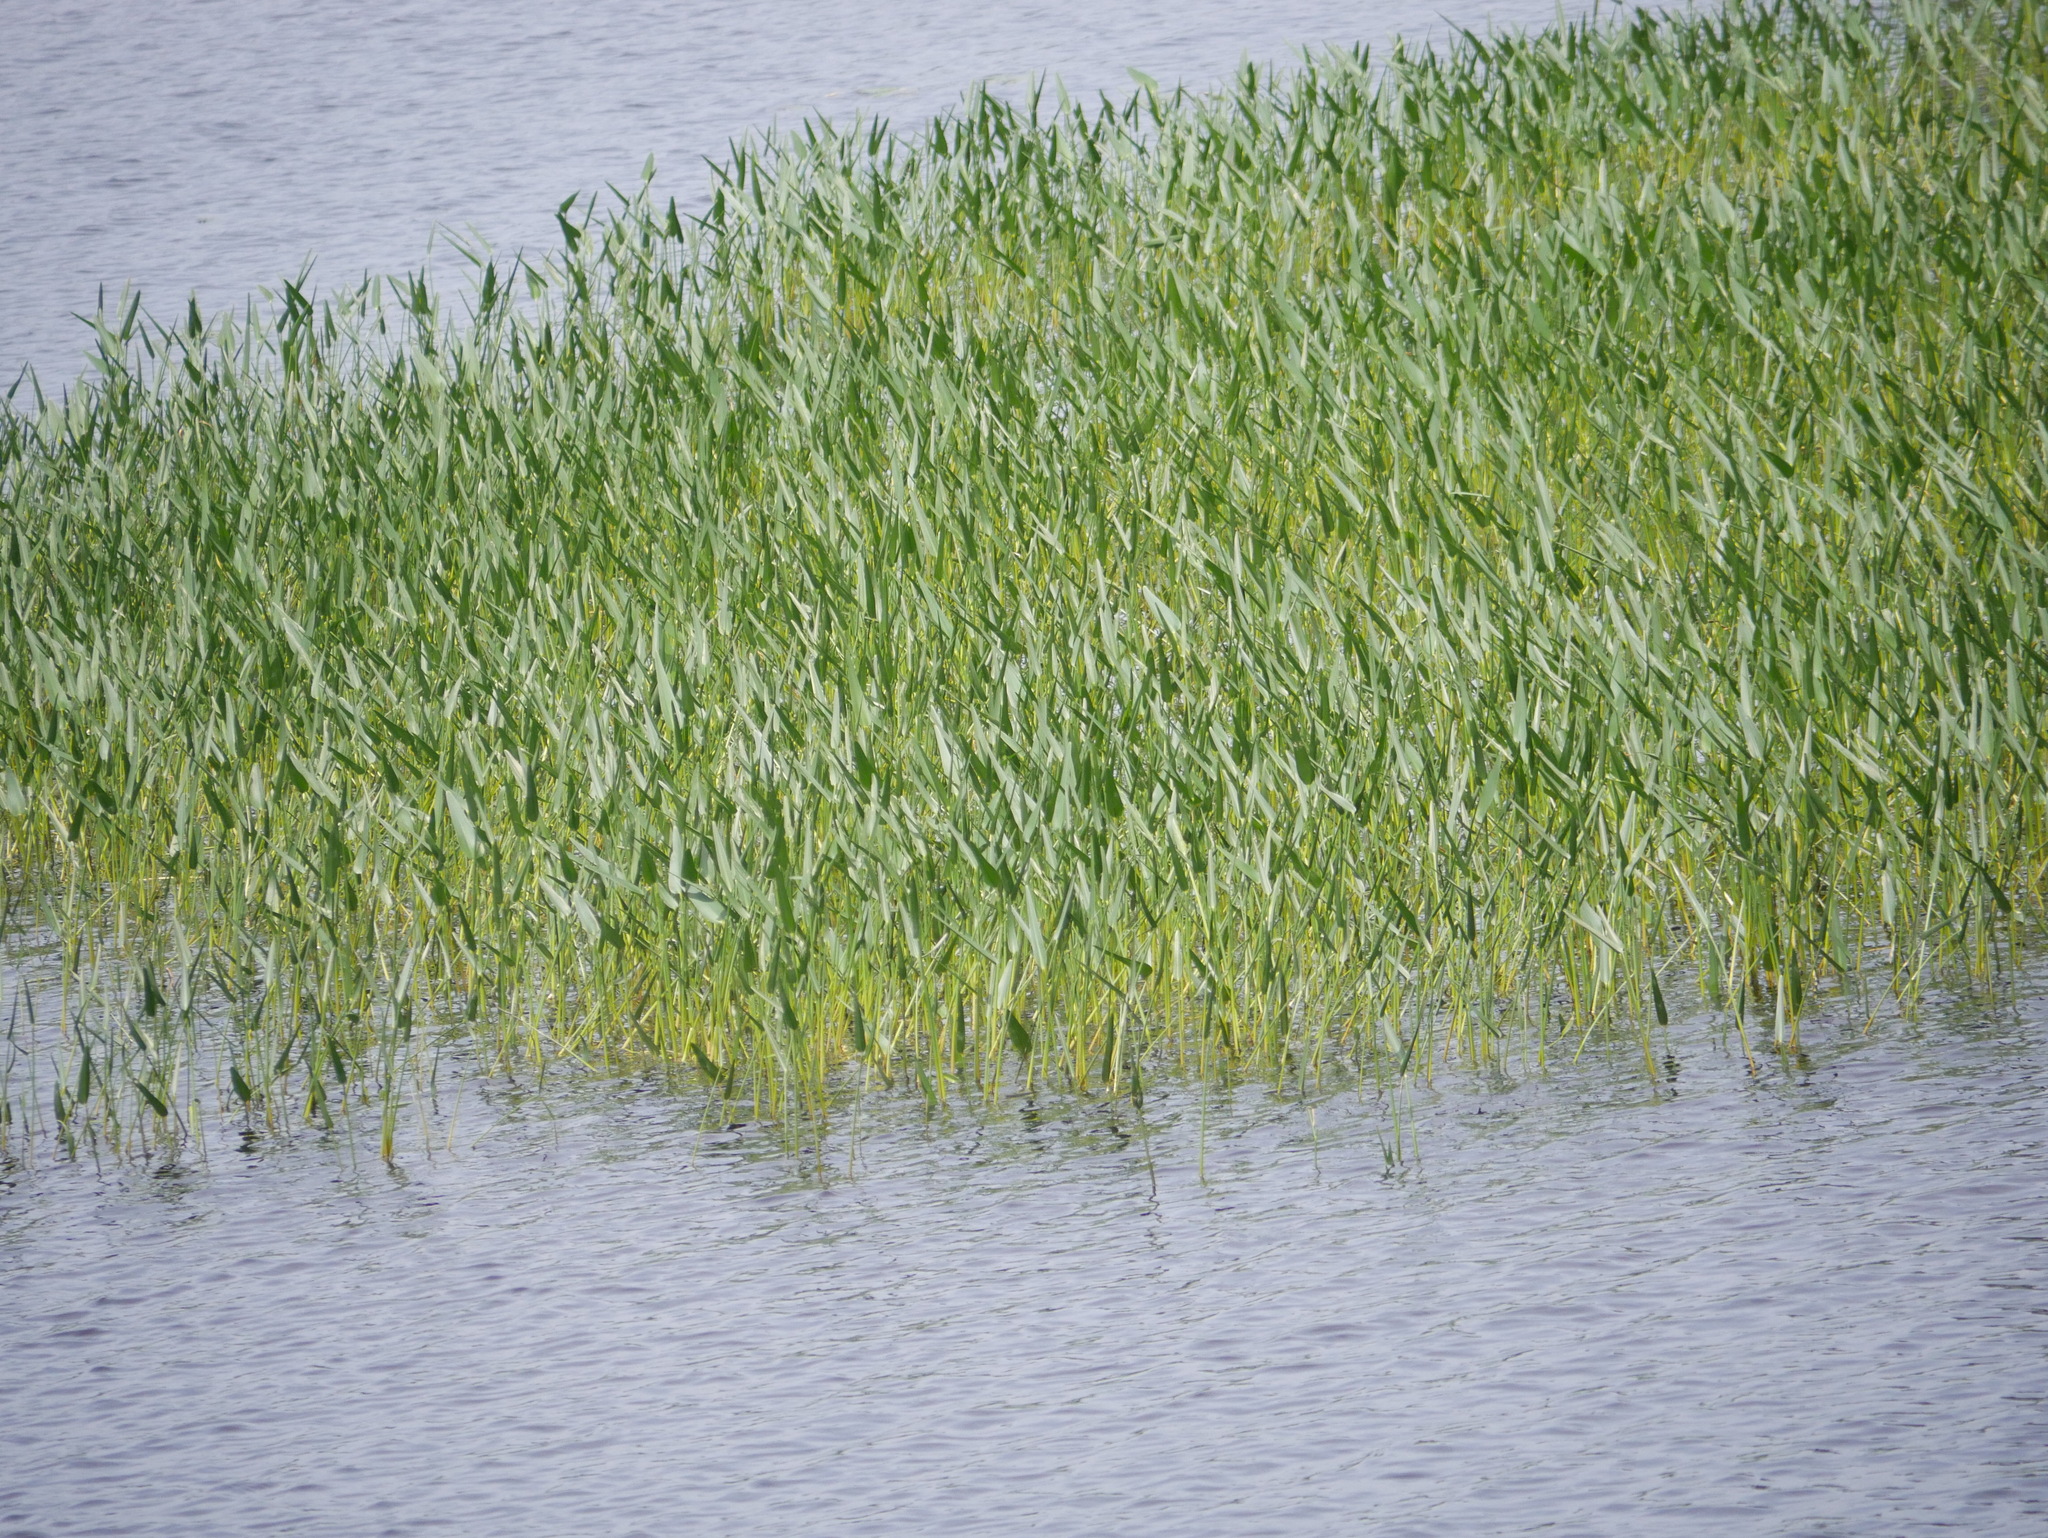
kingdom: Plantae
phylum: Tracheophyta
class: Liliopsida
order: Commelinales
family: Pontederiaceae
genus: Pontederia
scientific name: Pontederia cordata
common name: Pickerelweed
